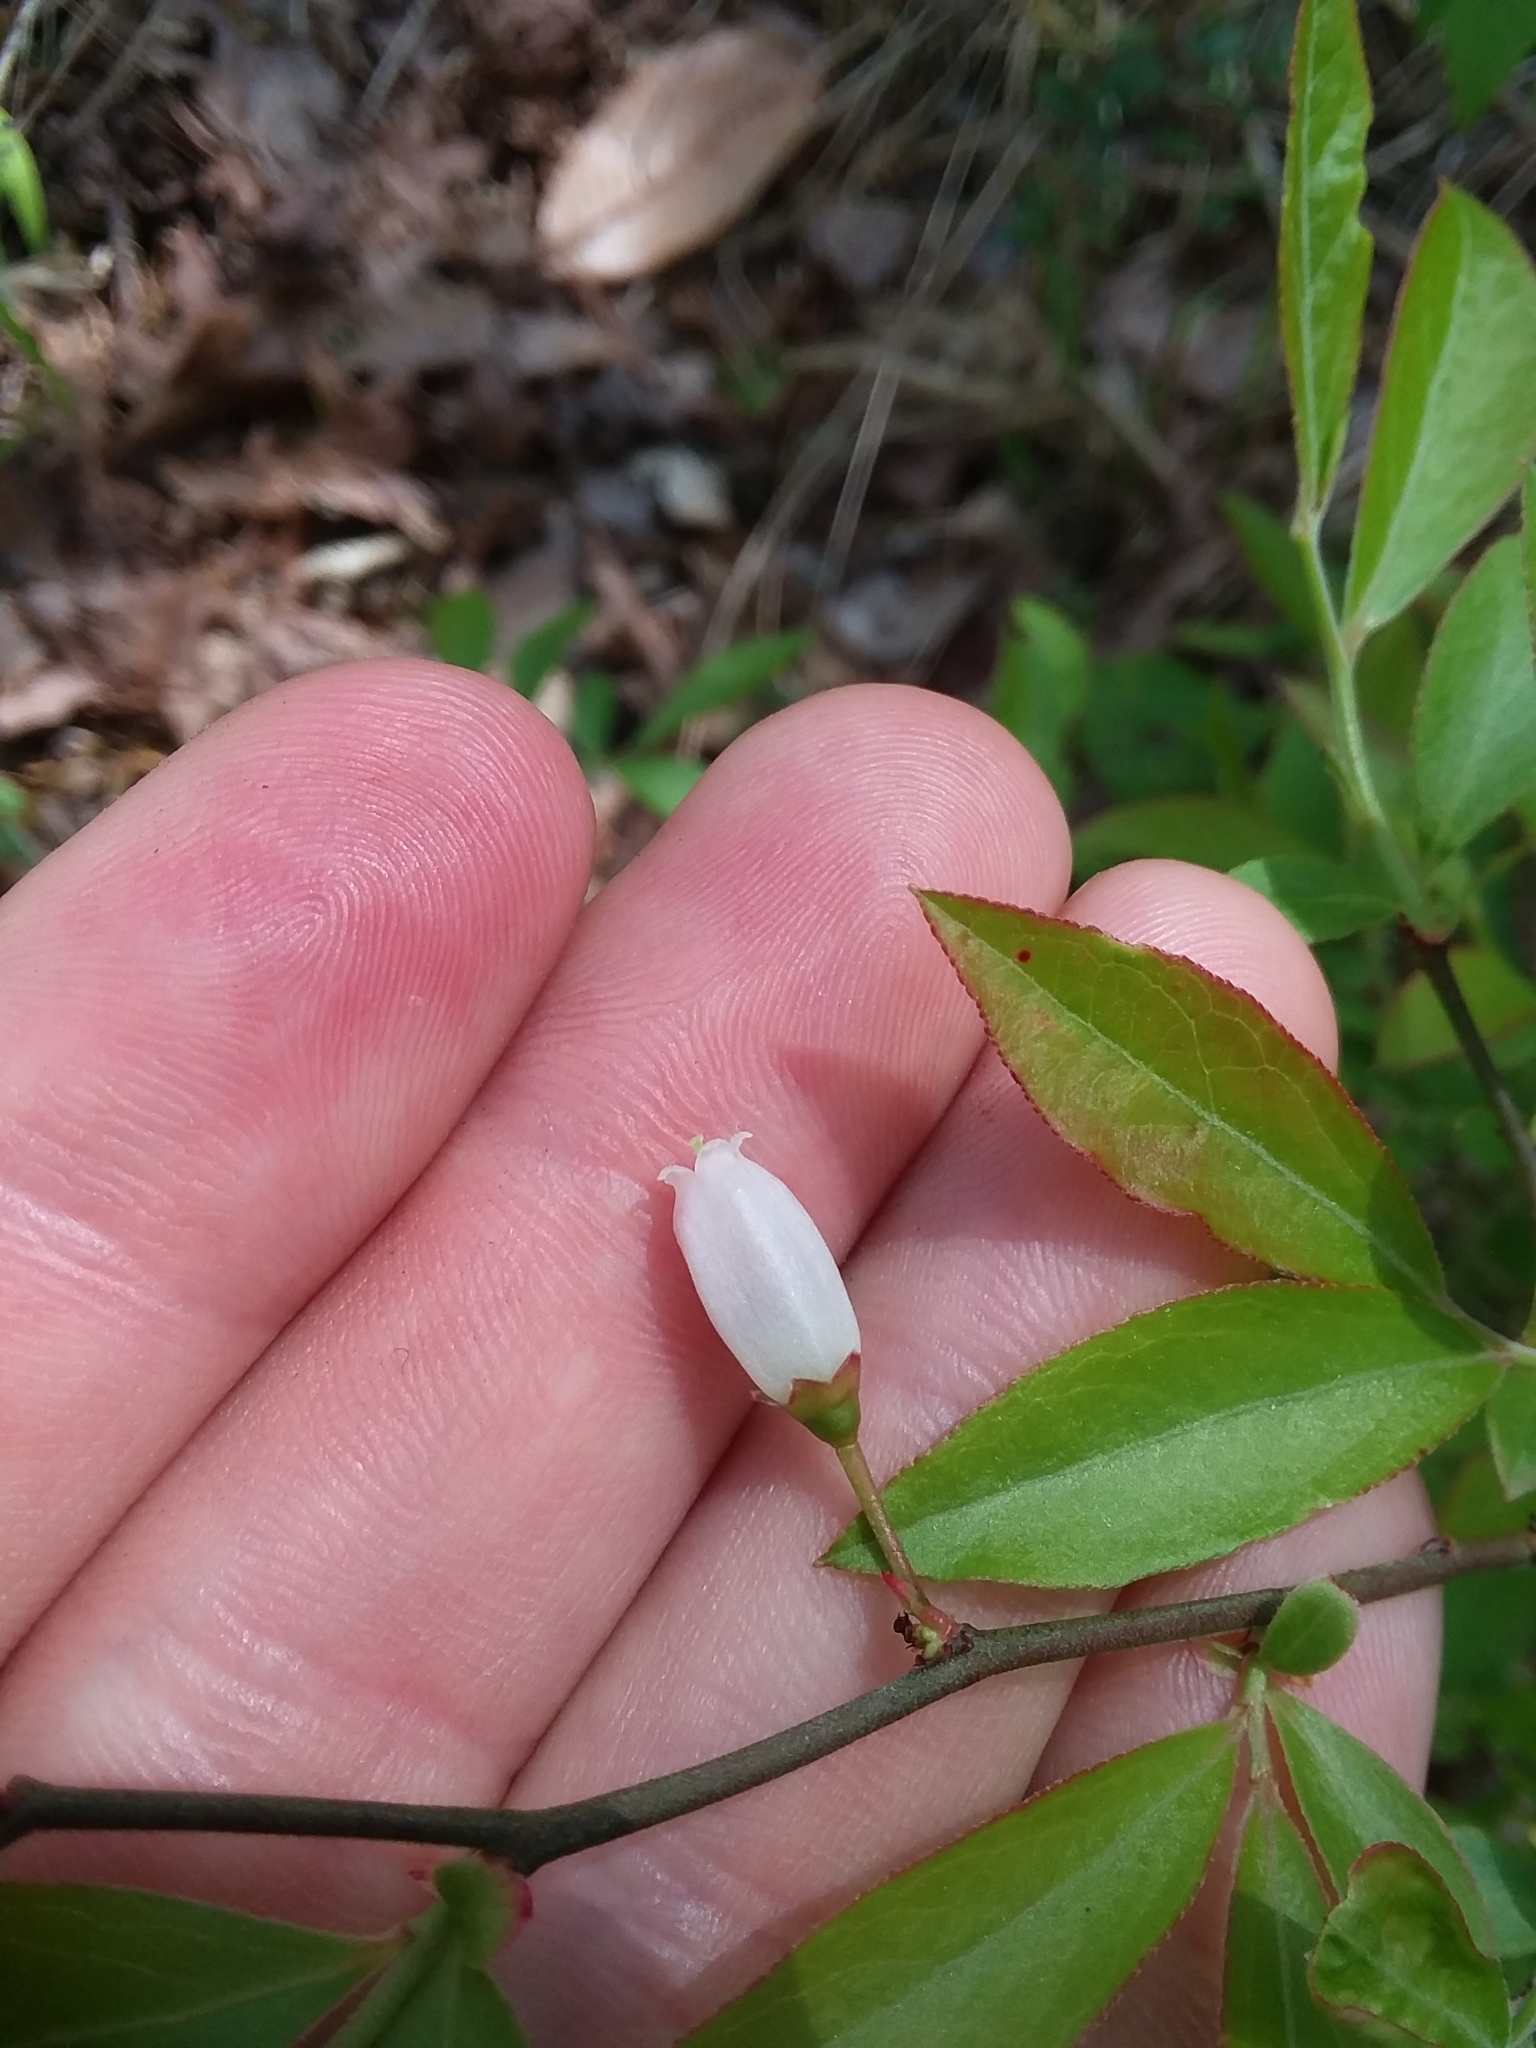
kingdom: Plantae
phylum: Tracheophyta
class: Magnoliopsida
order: Ericales
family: Ericaceae
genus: Vaccinium
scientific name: Vaccinium tenellum
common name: Southern blueberry
